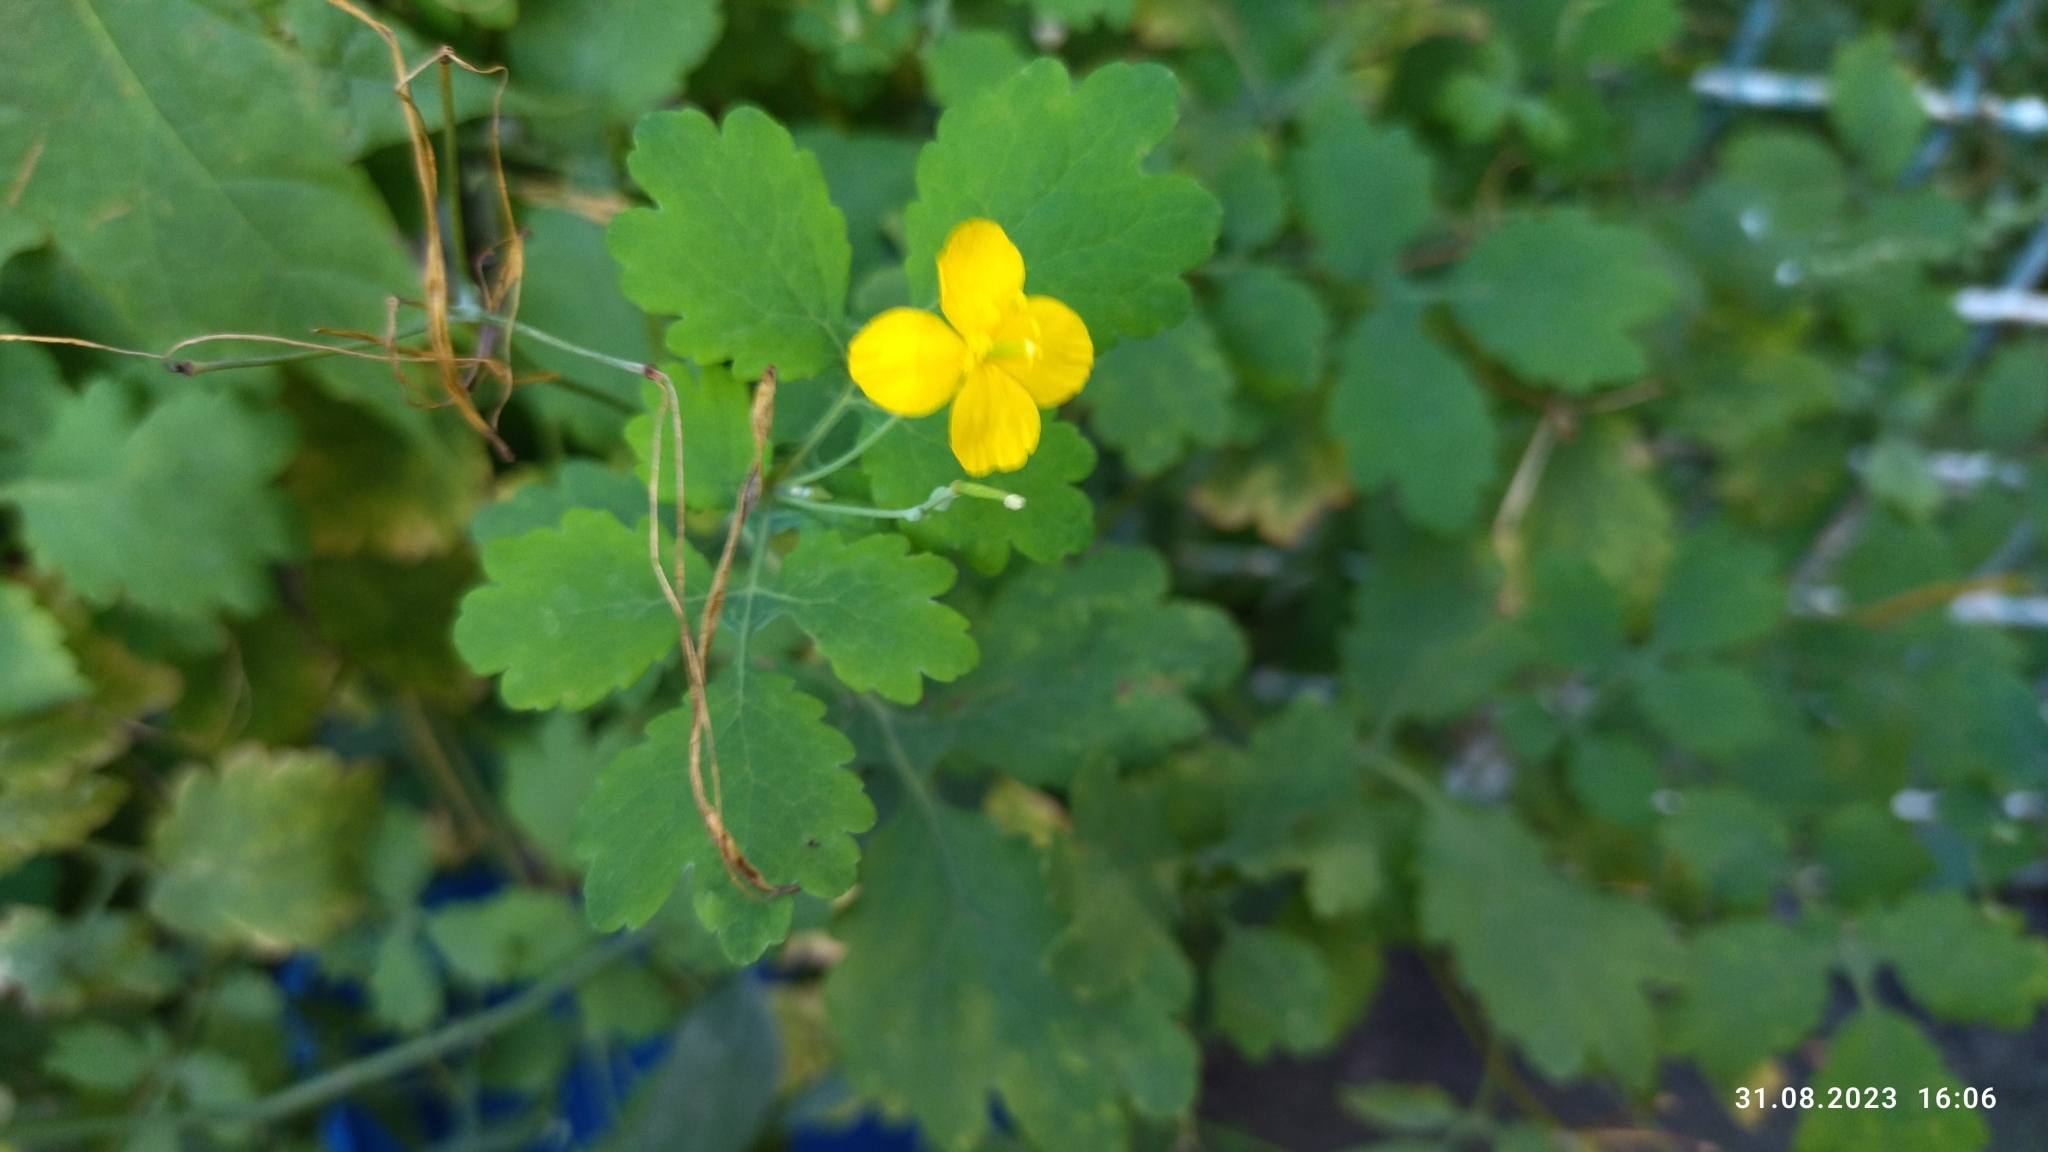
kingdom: Plantae
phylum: Tracheophyta
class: Magnoliopsida
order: Ranunculales
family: Papaveraceae
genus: Chelidonium
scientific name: Chelidonium majus
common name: Greater celandine
